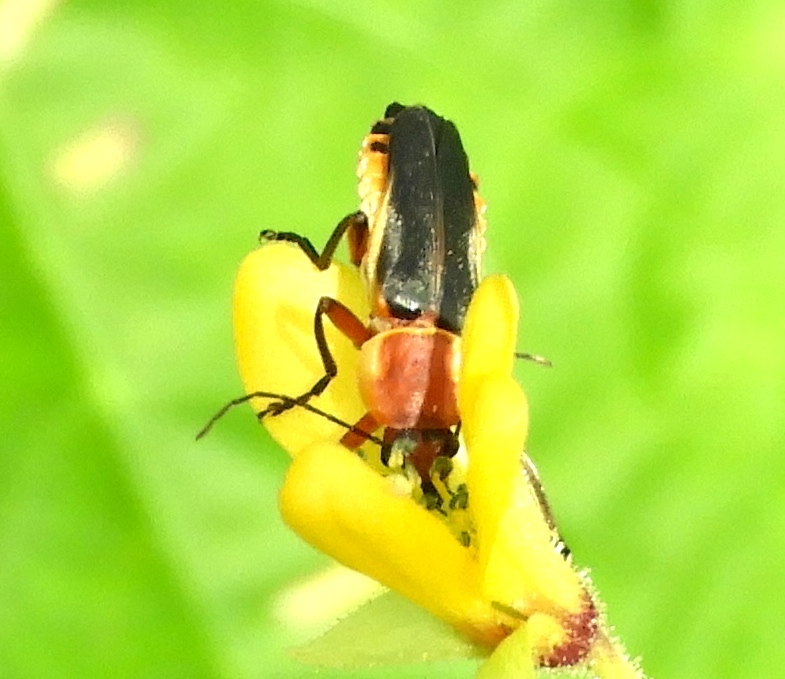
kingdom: Animalia
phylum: Arthropoda
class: Insecta
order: Coleoptera
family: Cantharidae
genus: Chauliognathus
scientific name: Chauliognathus
